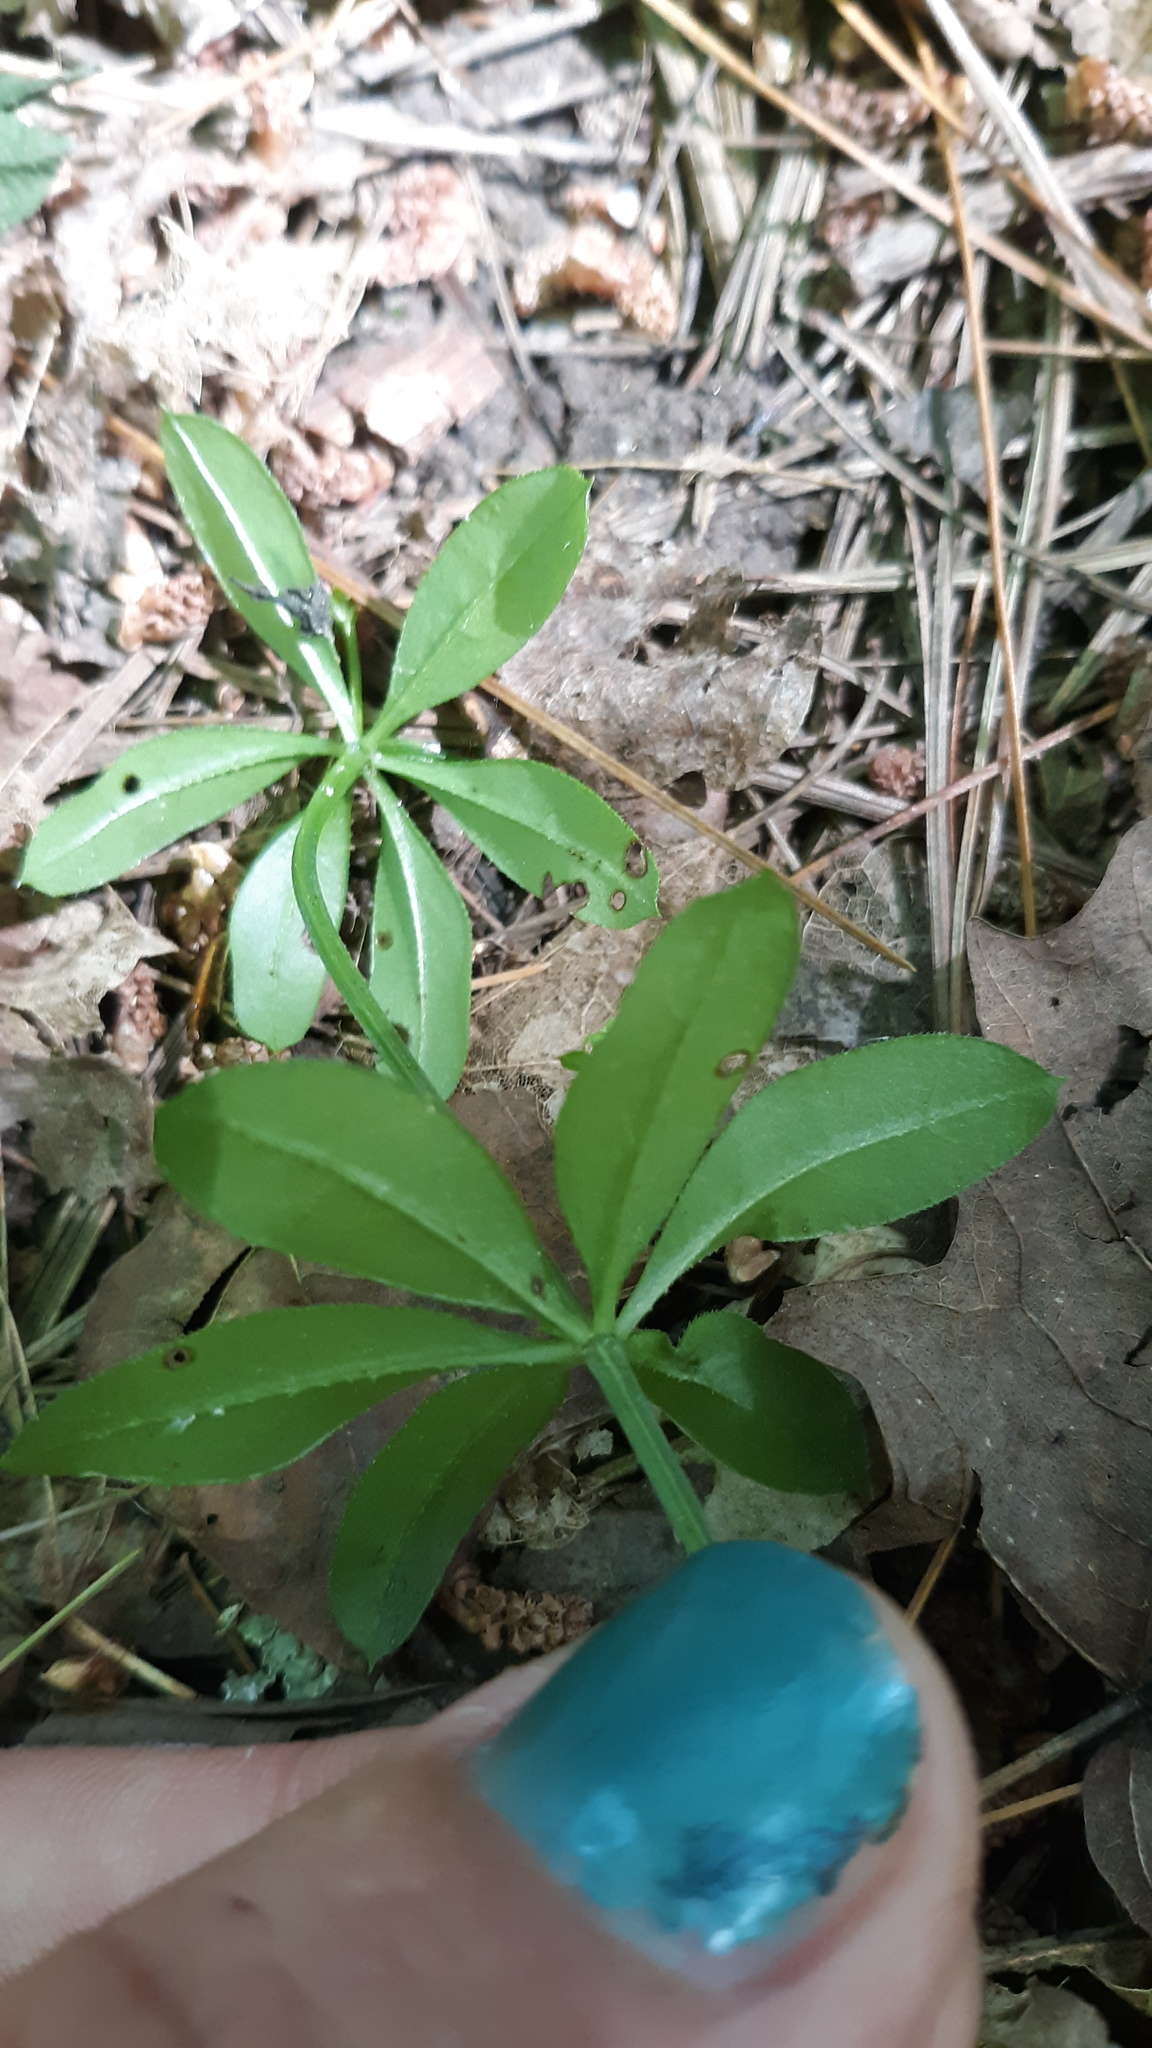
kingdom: Plantae
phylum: Tracheophyta
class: Magnoliopsida
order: Gentianales
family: Rubiaceae
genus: Galium
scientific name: Galium triflorum
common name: Fragrant bedstraw
